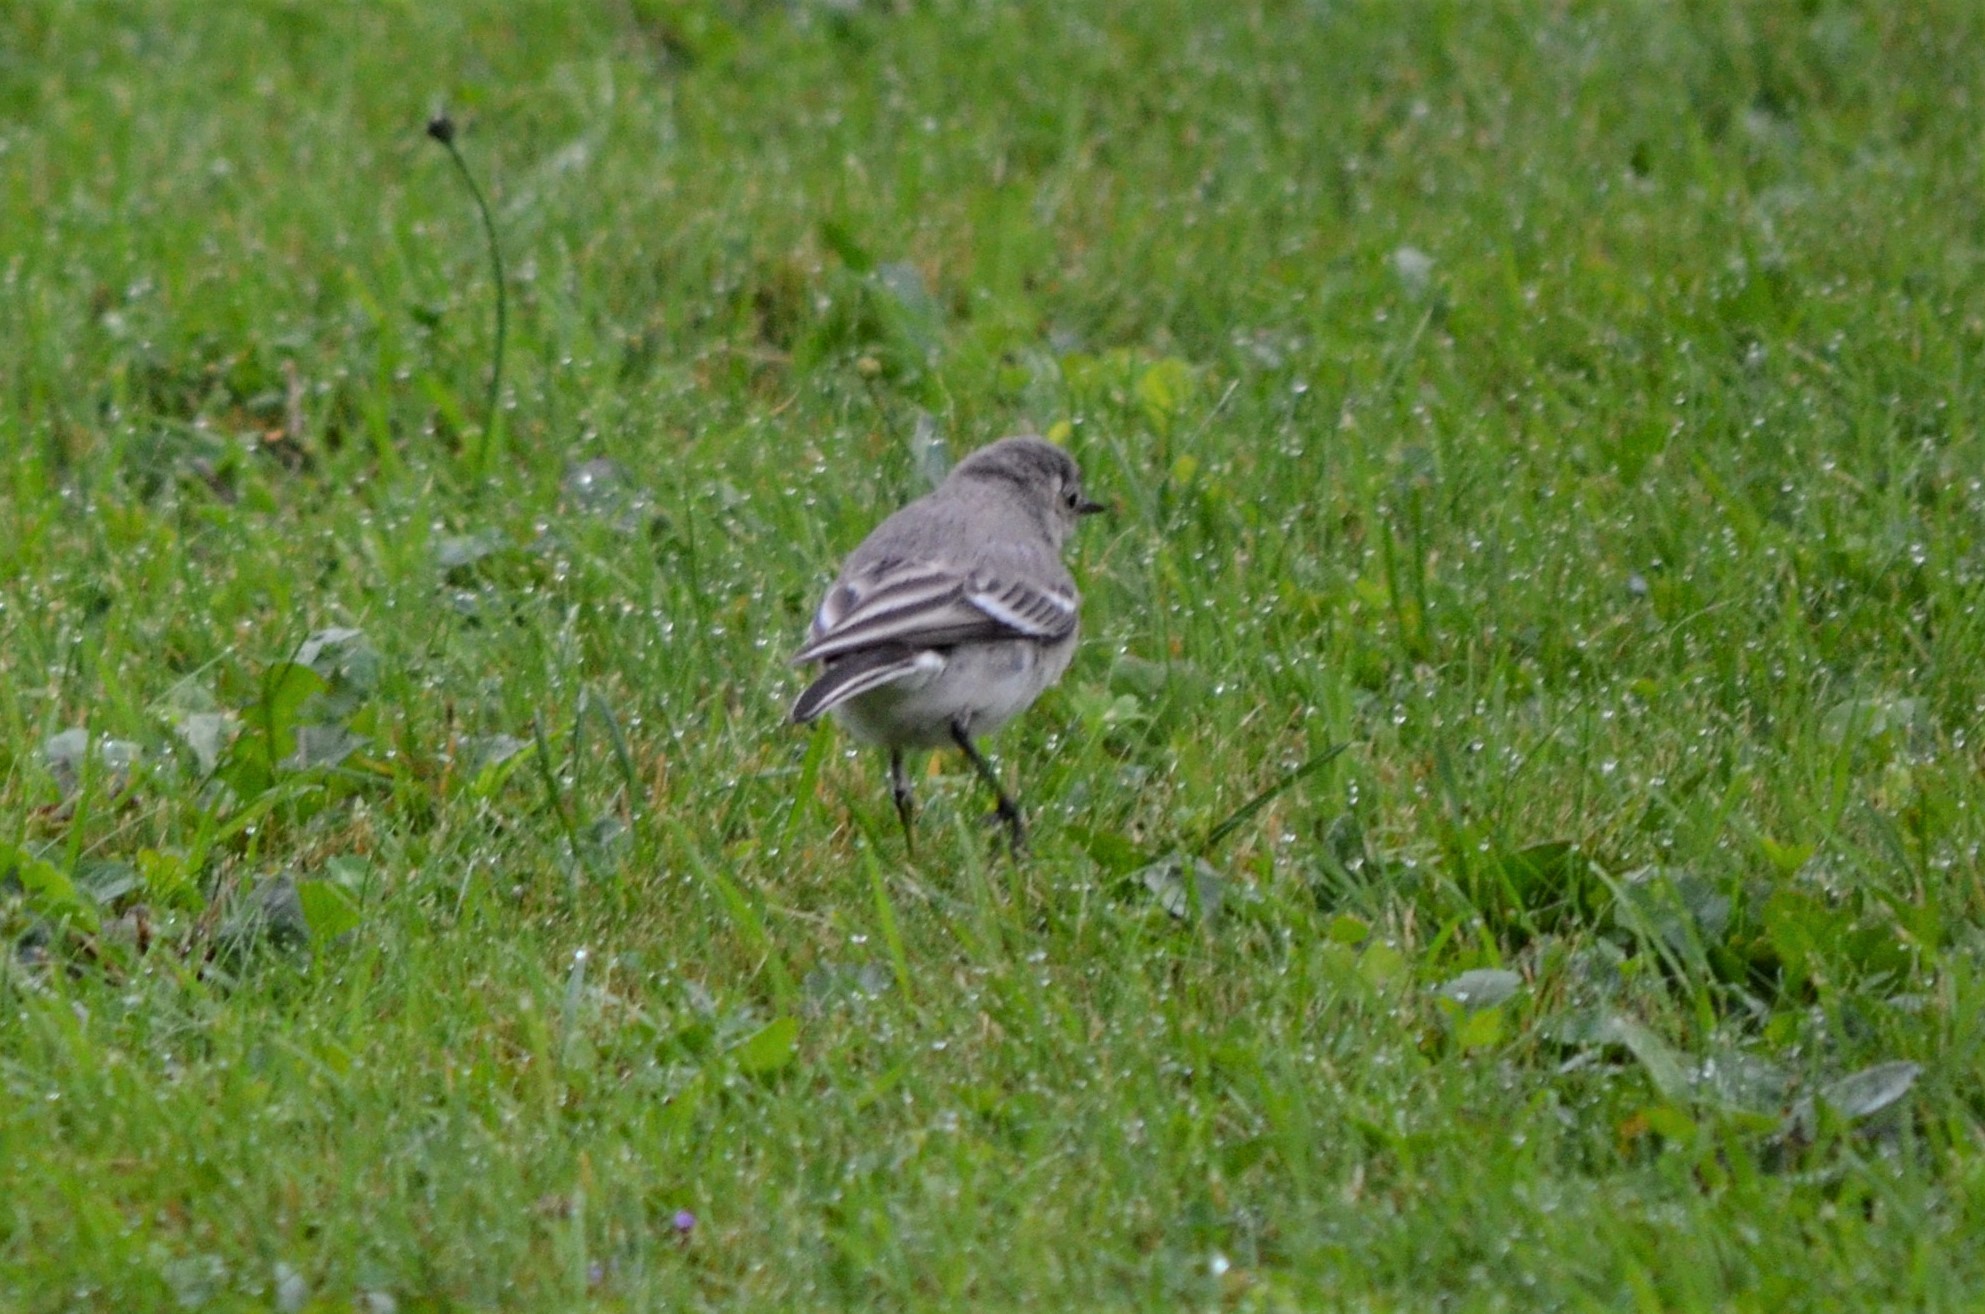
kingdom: Animalia
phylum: Chordata
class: Aves
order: Passeriformes
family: Motacillidae
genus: Motacilla
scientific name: Motacilla alba
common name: White wagtail
